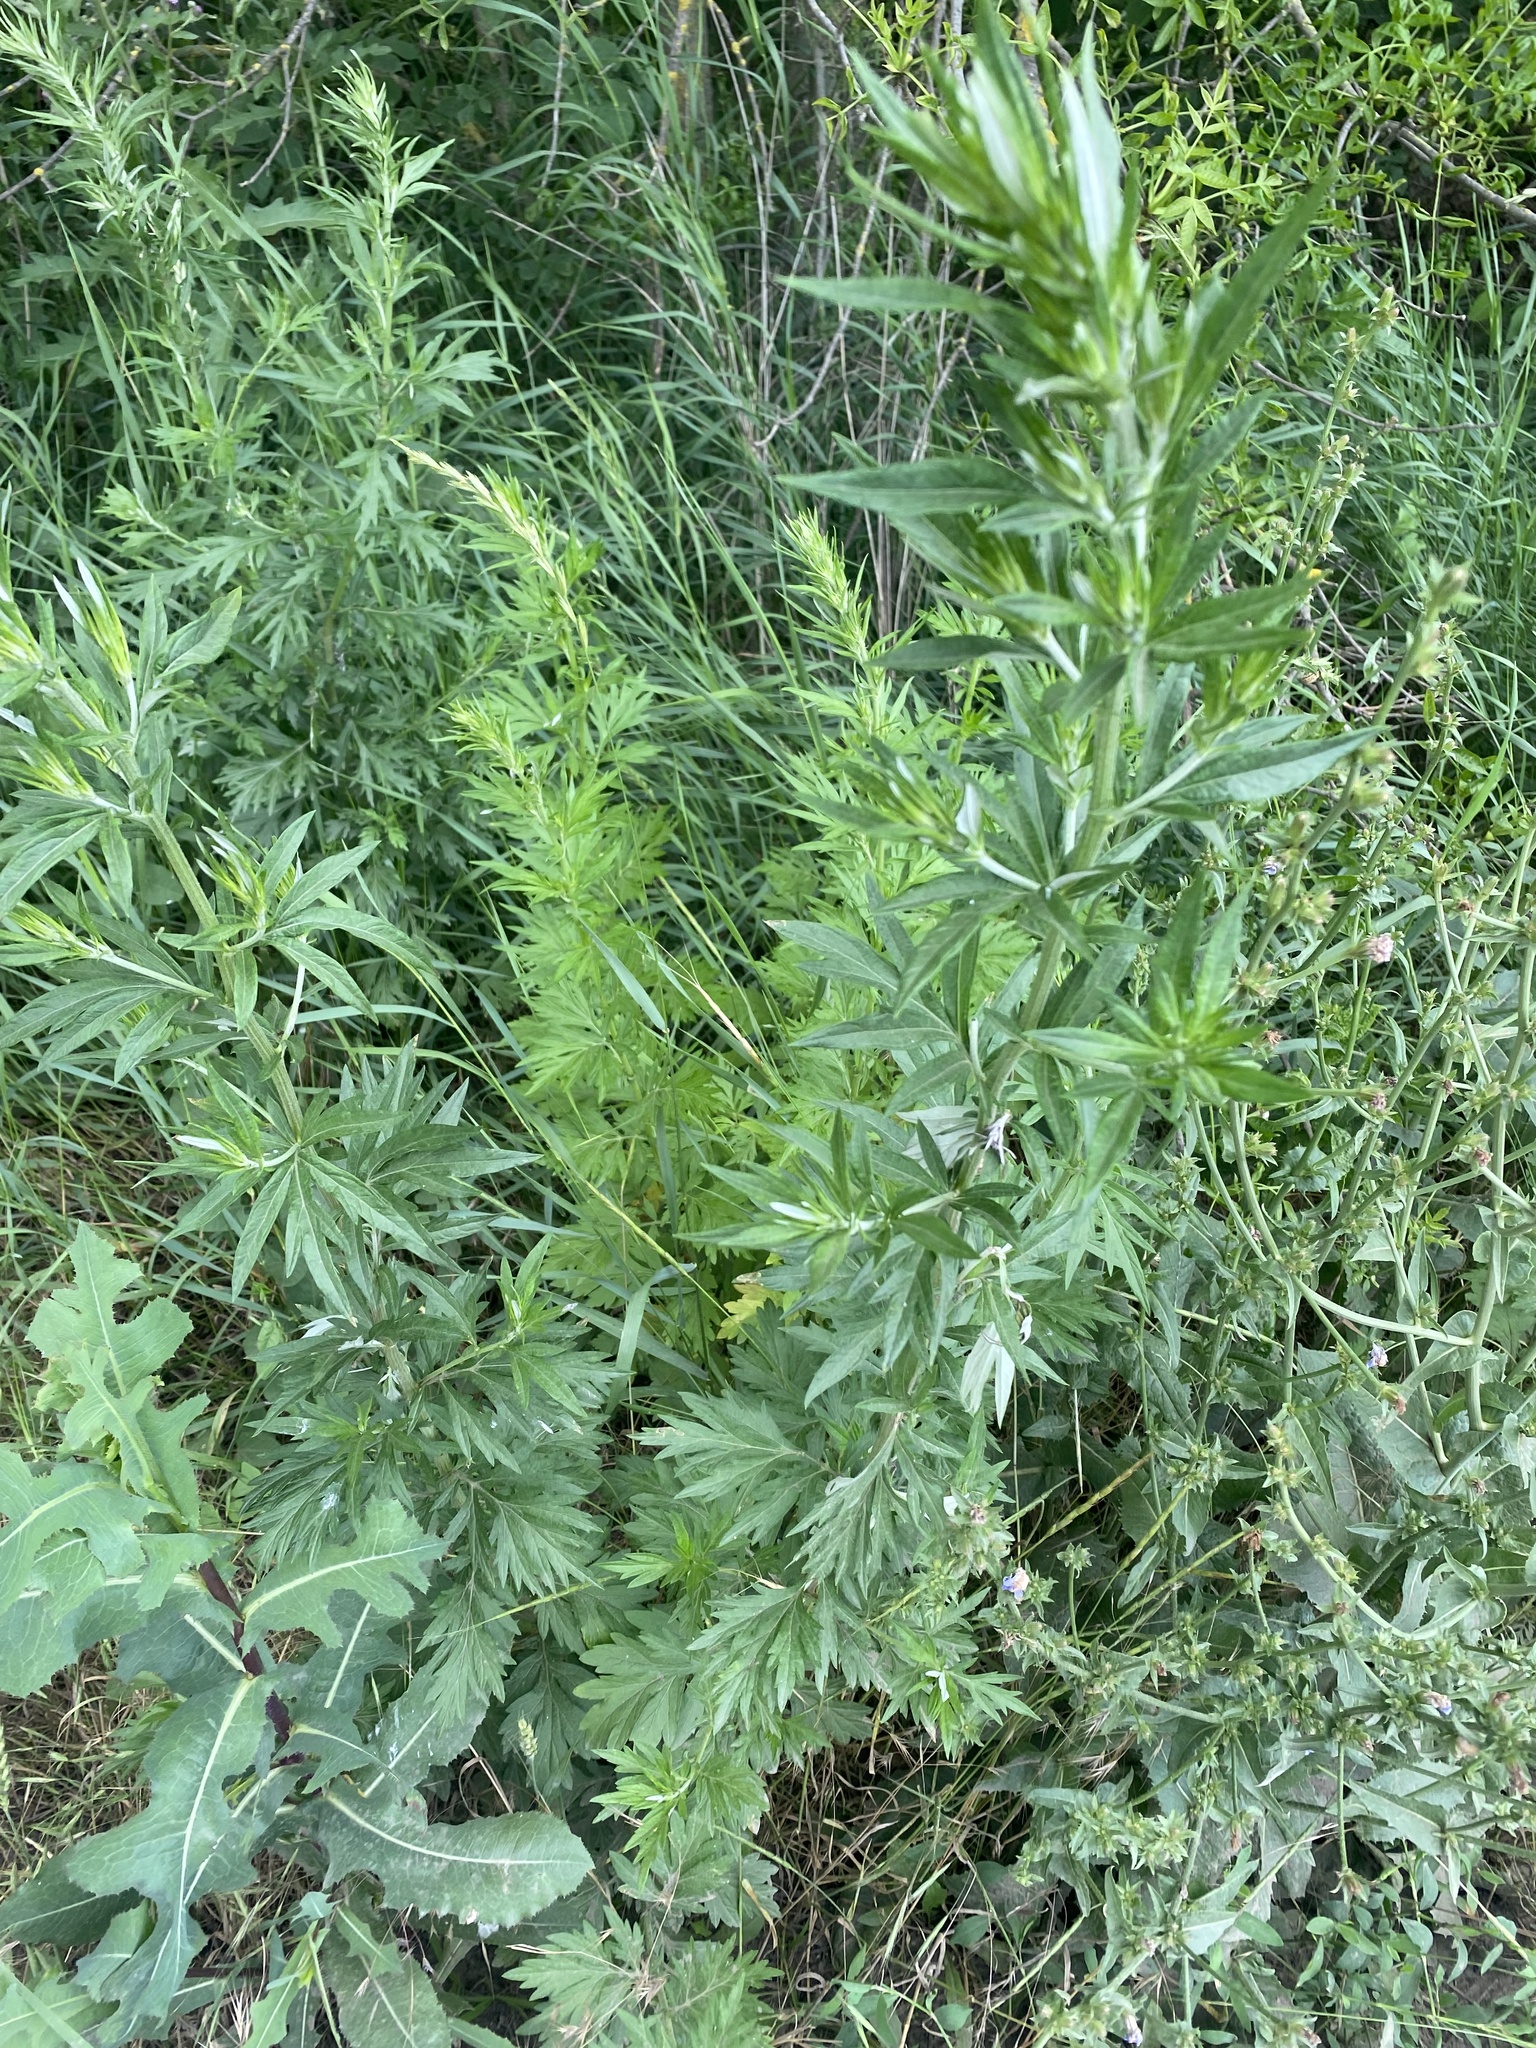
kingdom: Plantae
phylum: Tracheophyta
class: Magnoliopsida
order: Asterales
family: Asteraceae
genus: Artemisia
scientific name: Artemisia vulgaris
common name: Mugwort
